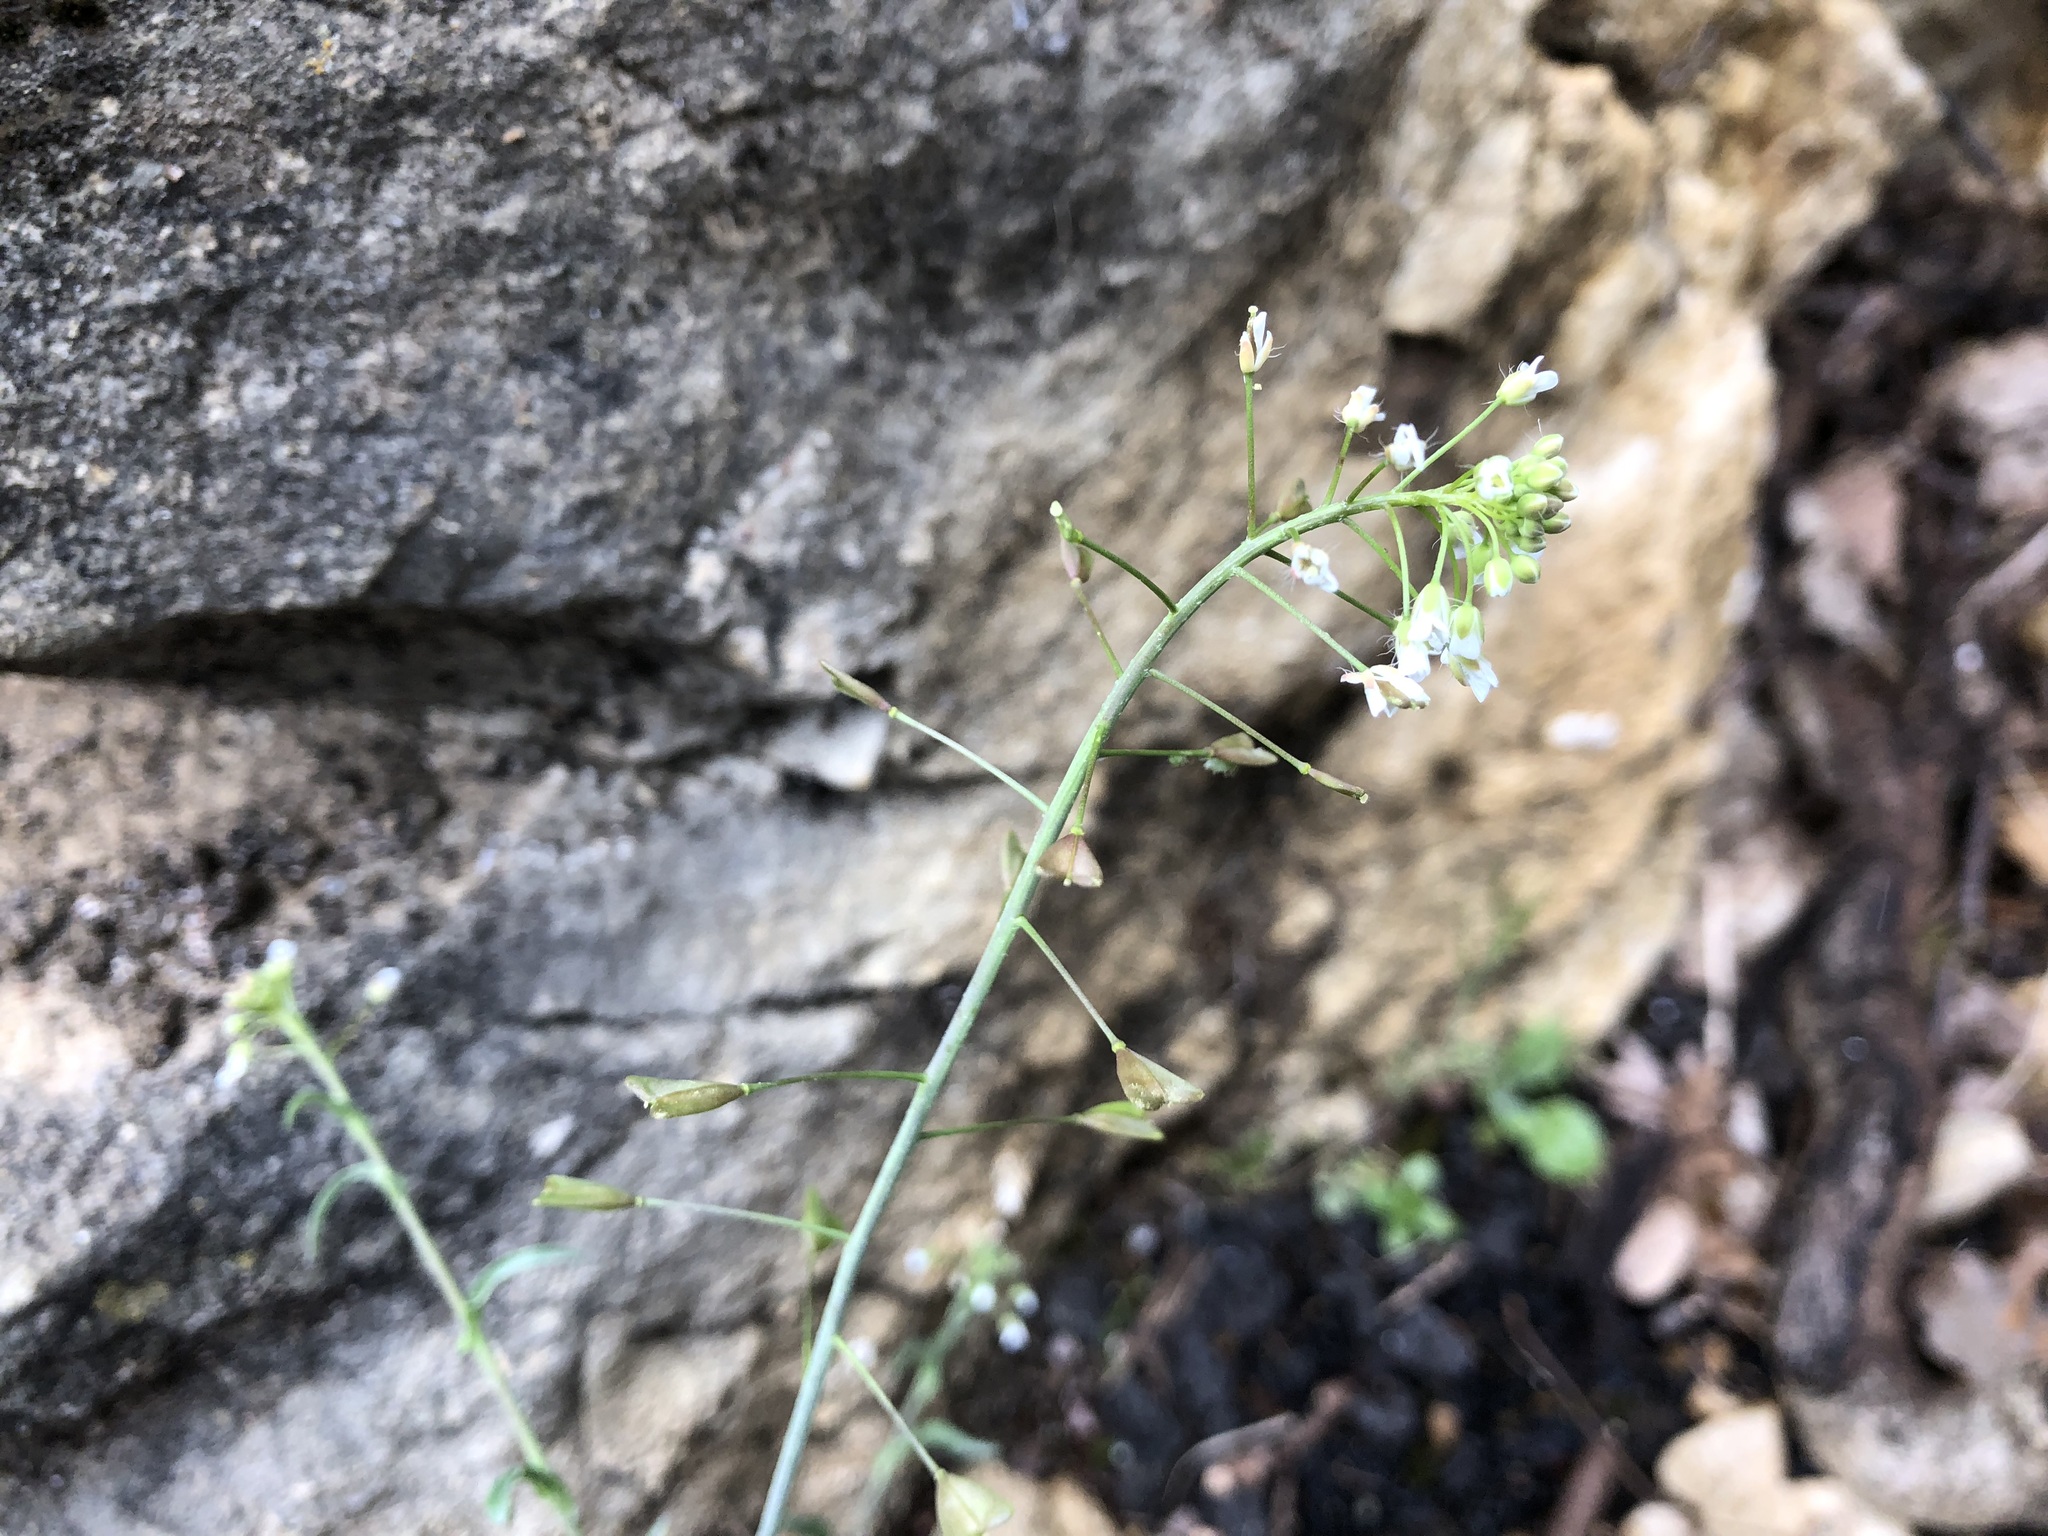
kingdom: Plantae
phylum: Tracheophyta
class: Magnoliopsida
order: Brassicales
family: Brassicaceae
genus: Capsella
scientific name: Capsella bursa-pastoris
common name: Shepherd's purse
